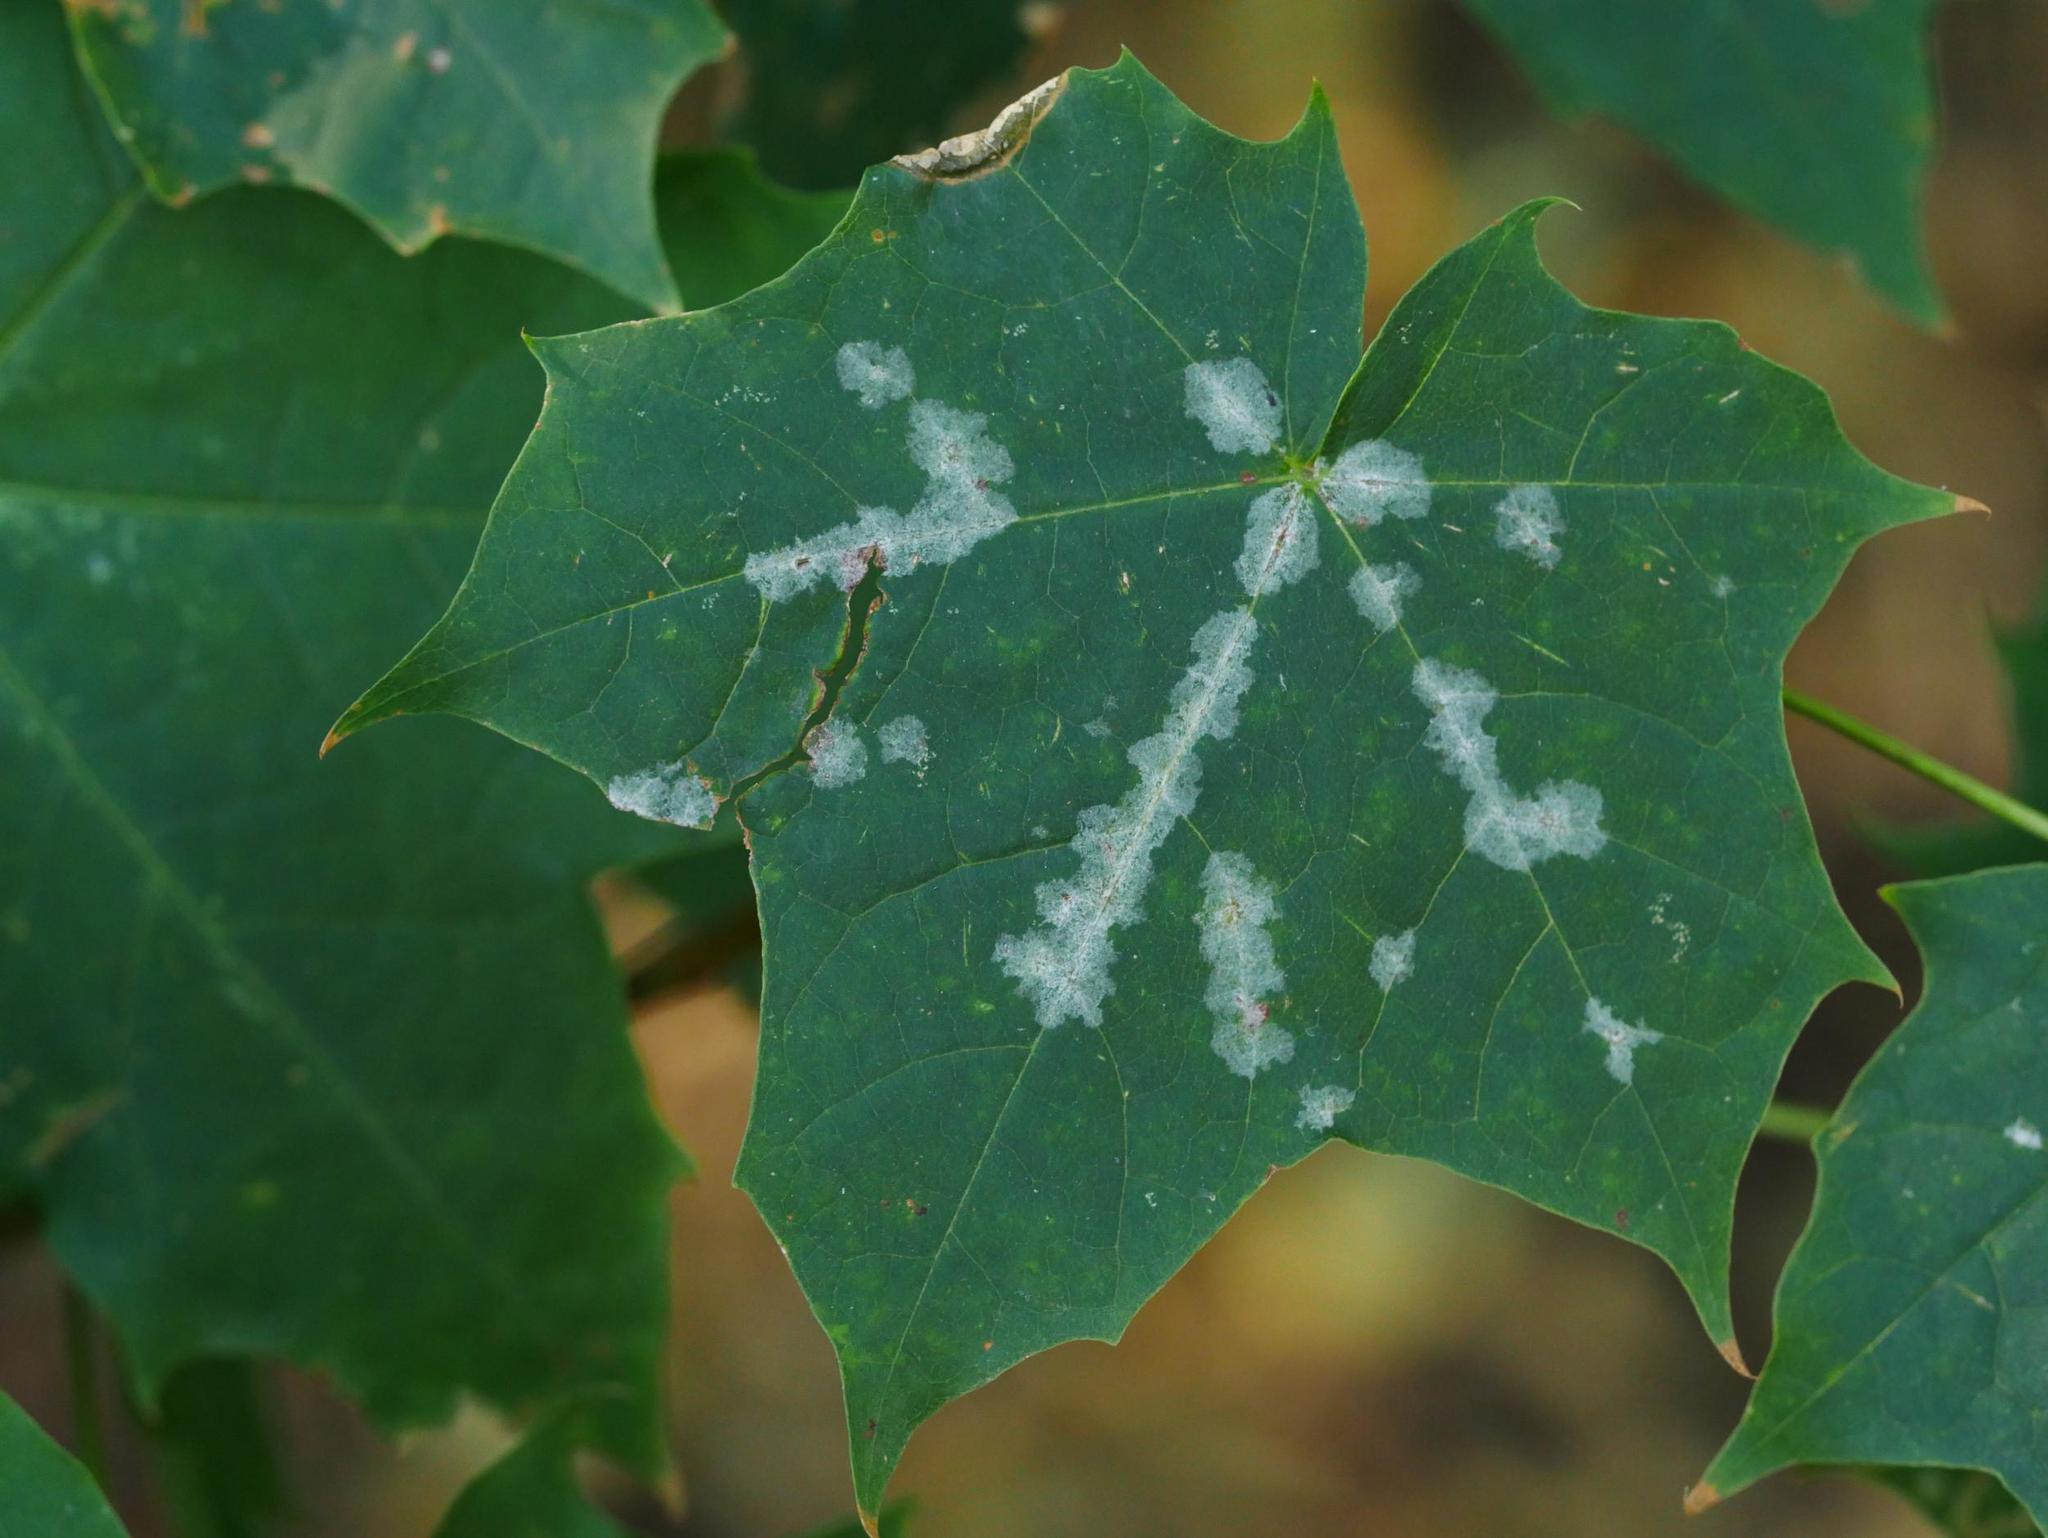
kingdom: Fungi
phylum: Ascomycota
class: Leotiomycetes
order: Helotiales
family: Erysiphaceae
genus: Sawadaea
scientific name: Sawadaea tulasnei
